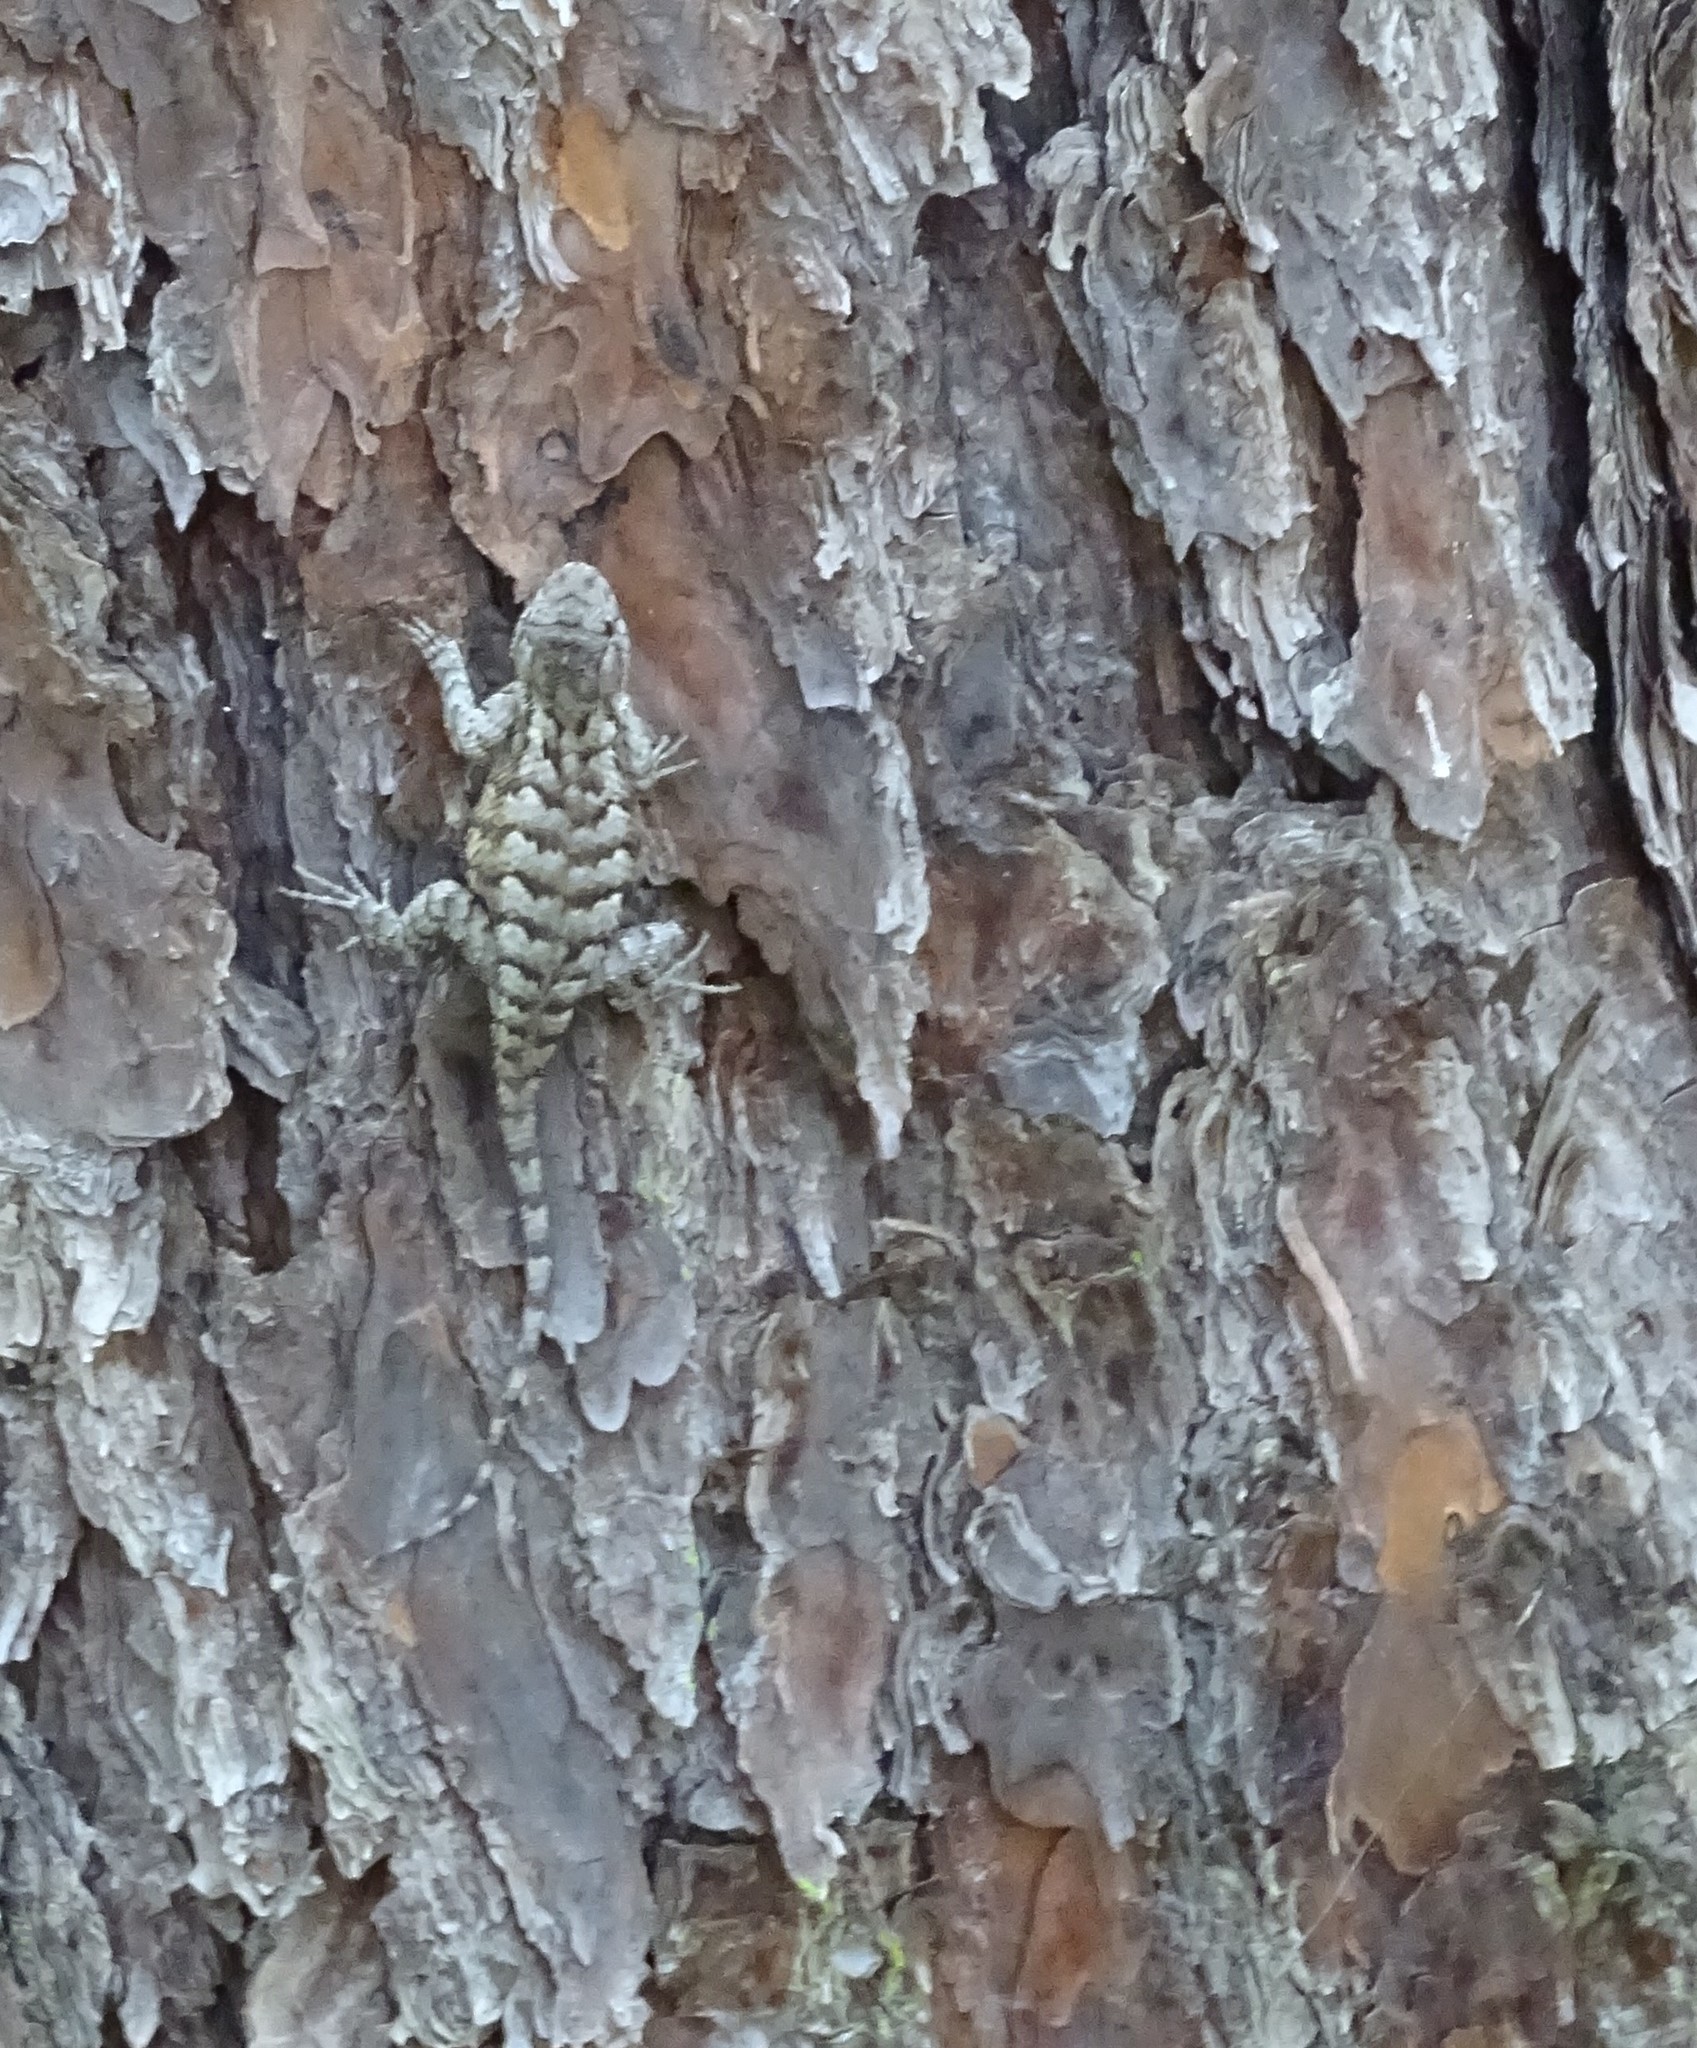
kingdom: Animalia
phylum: Chordata
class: Squamata
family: Phrynosomatidae
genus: Sceloporus
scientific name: Sceloporus undulatus
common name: Eastern fence lizard
